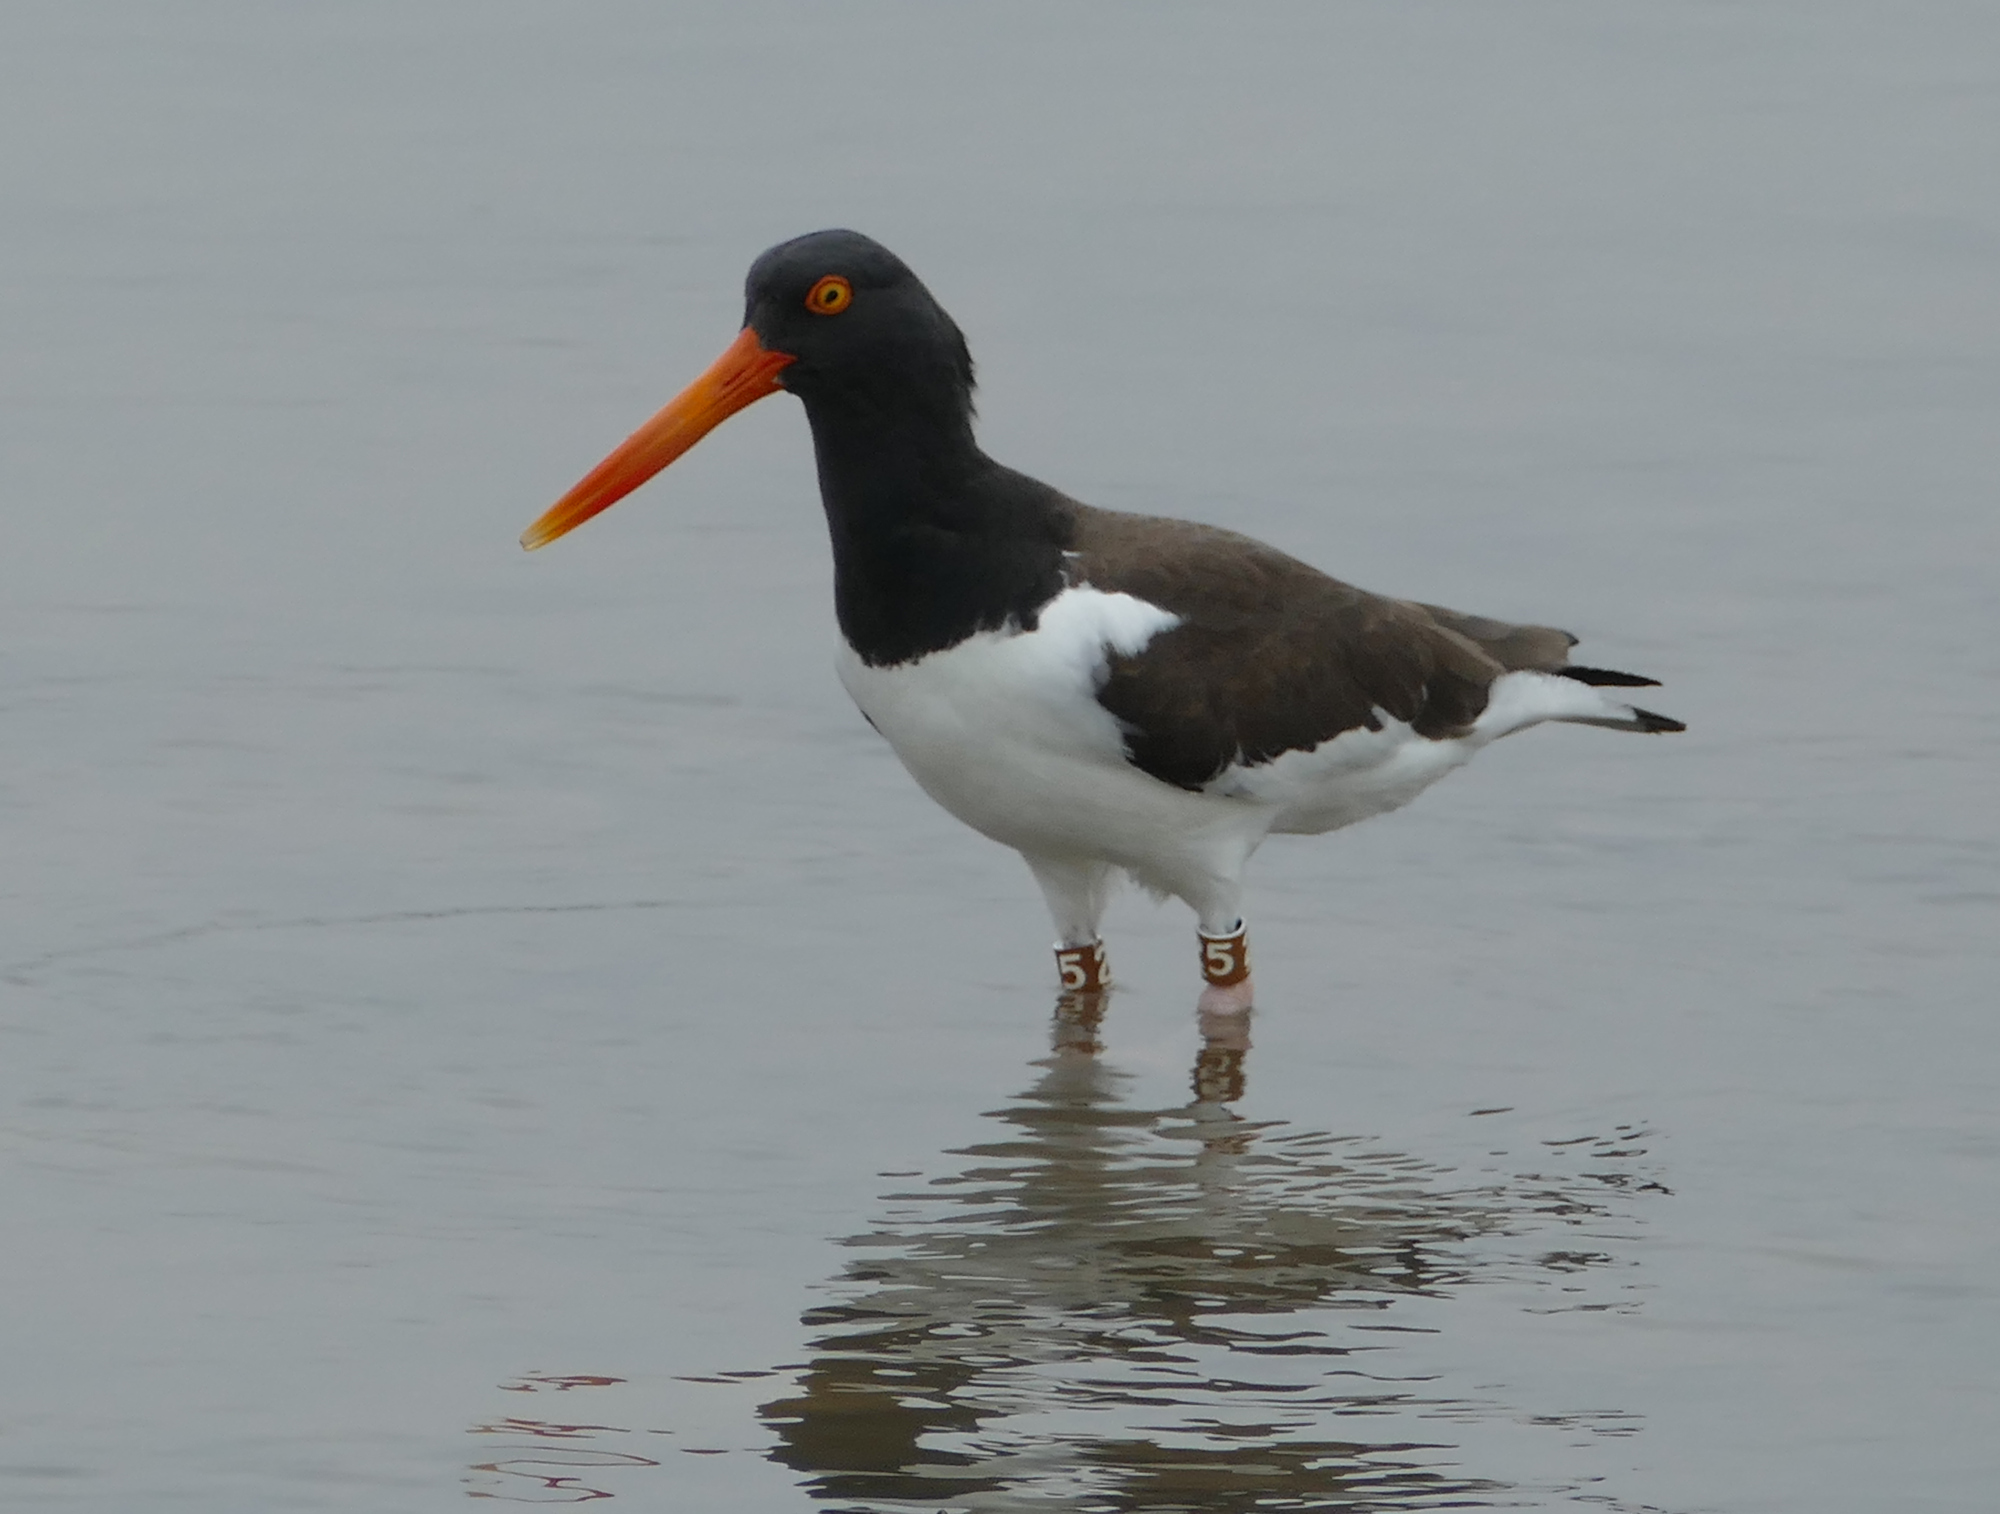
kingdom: Animalia
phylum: Chordata
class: Aves
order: Charadriiformes
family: Haematopodidae
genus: Haematopus
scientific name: Haematopus palliatus
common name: American oystercatcher
